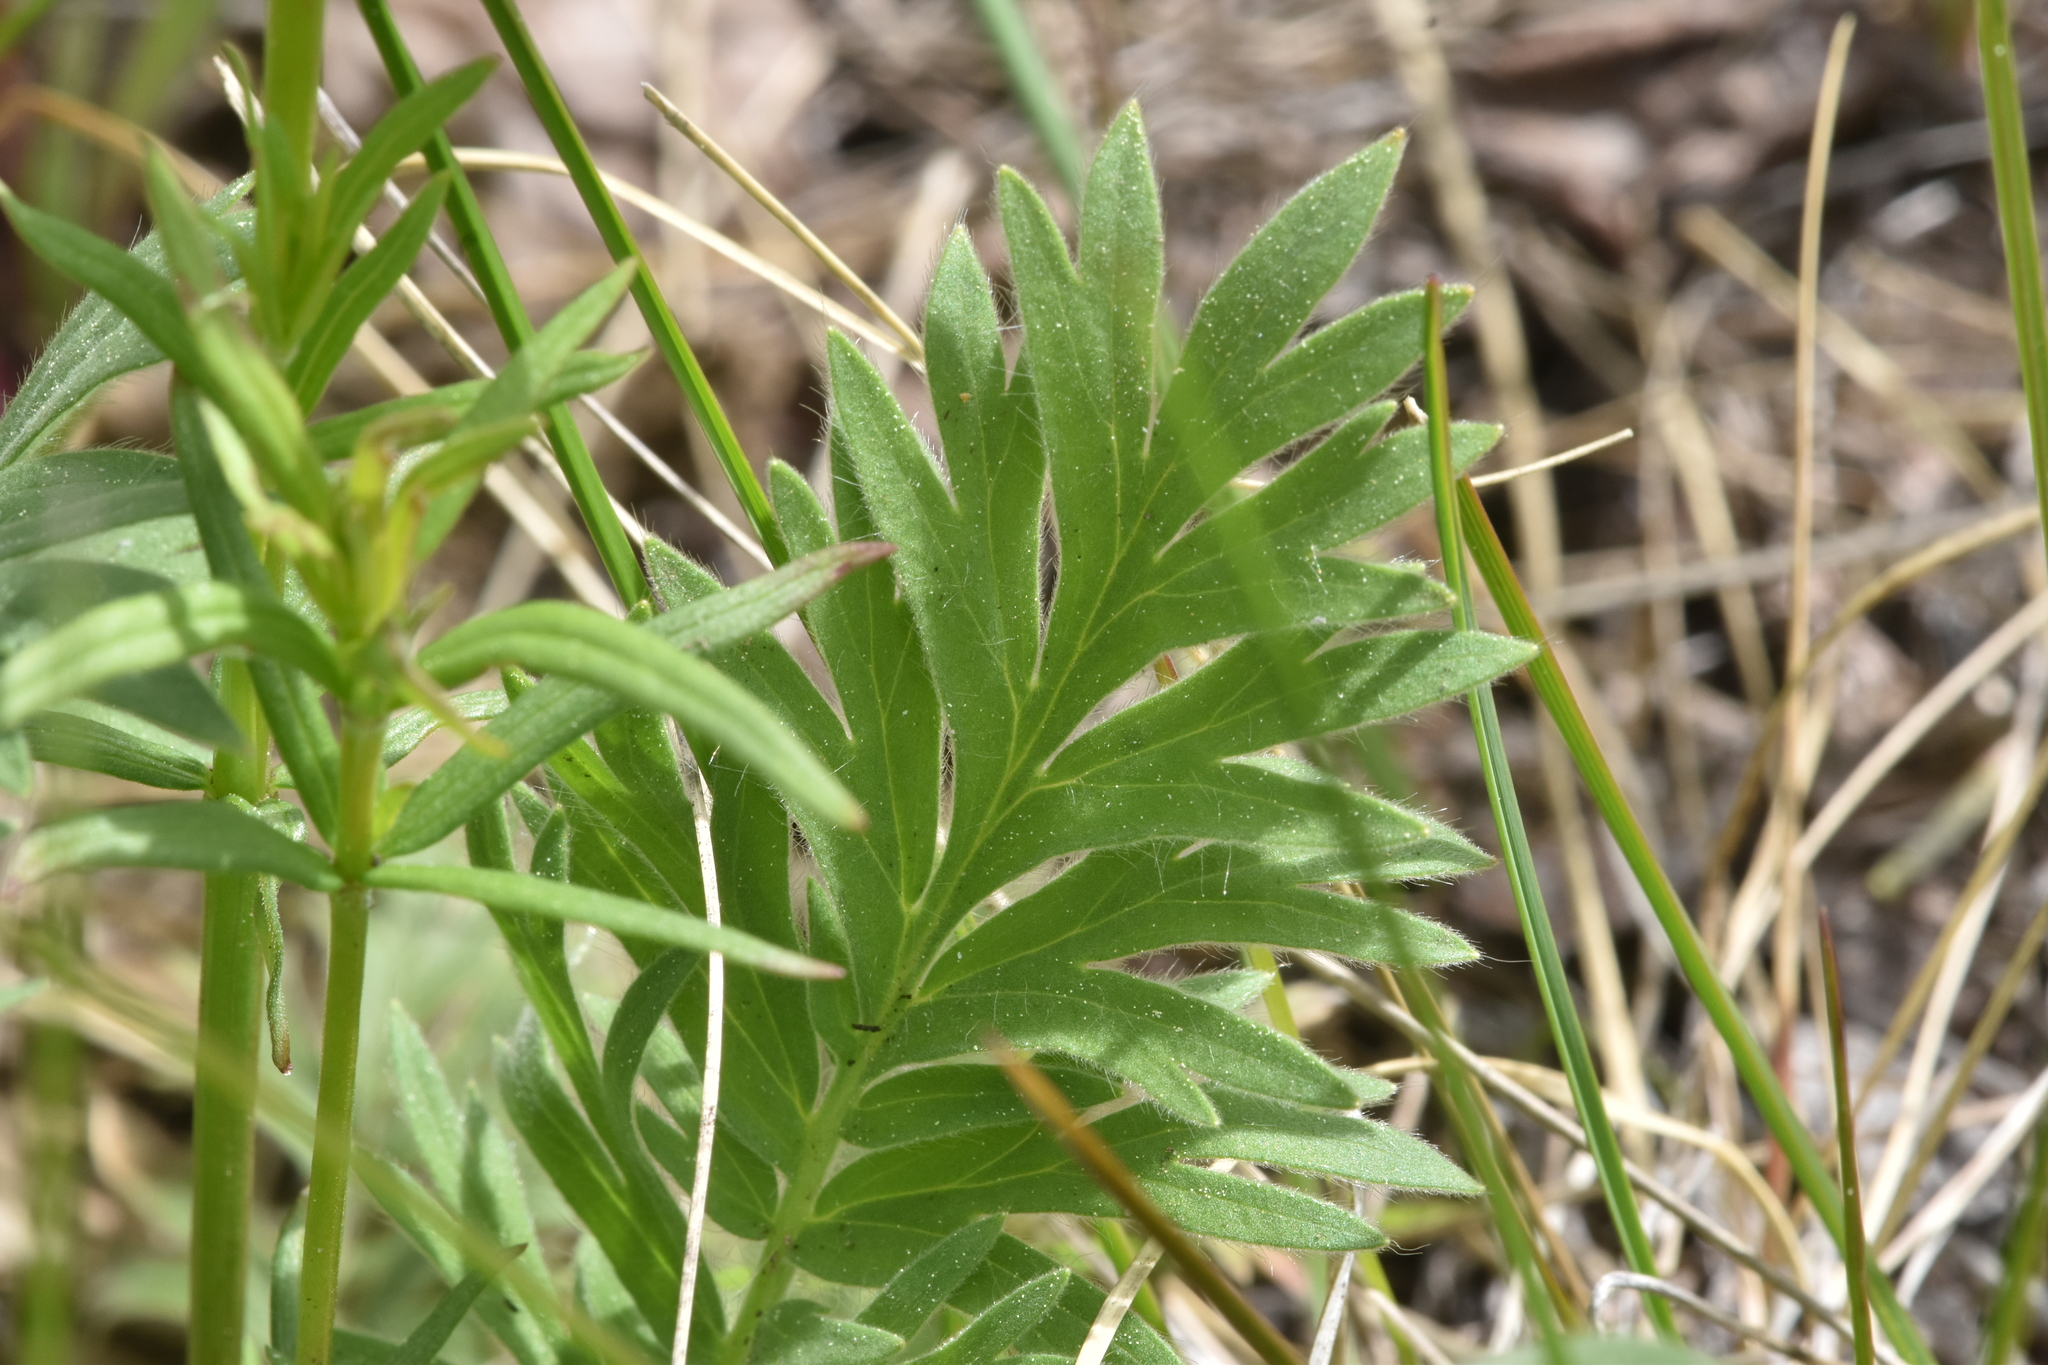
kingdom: Plantae
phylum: Tracheophyta
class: Magnoliopsida
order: Rosales
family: Rosaceae
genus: Geum
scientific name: Geum triflorum
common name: Old man's whiskers
